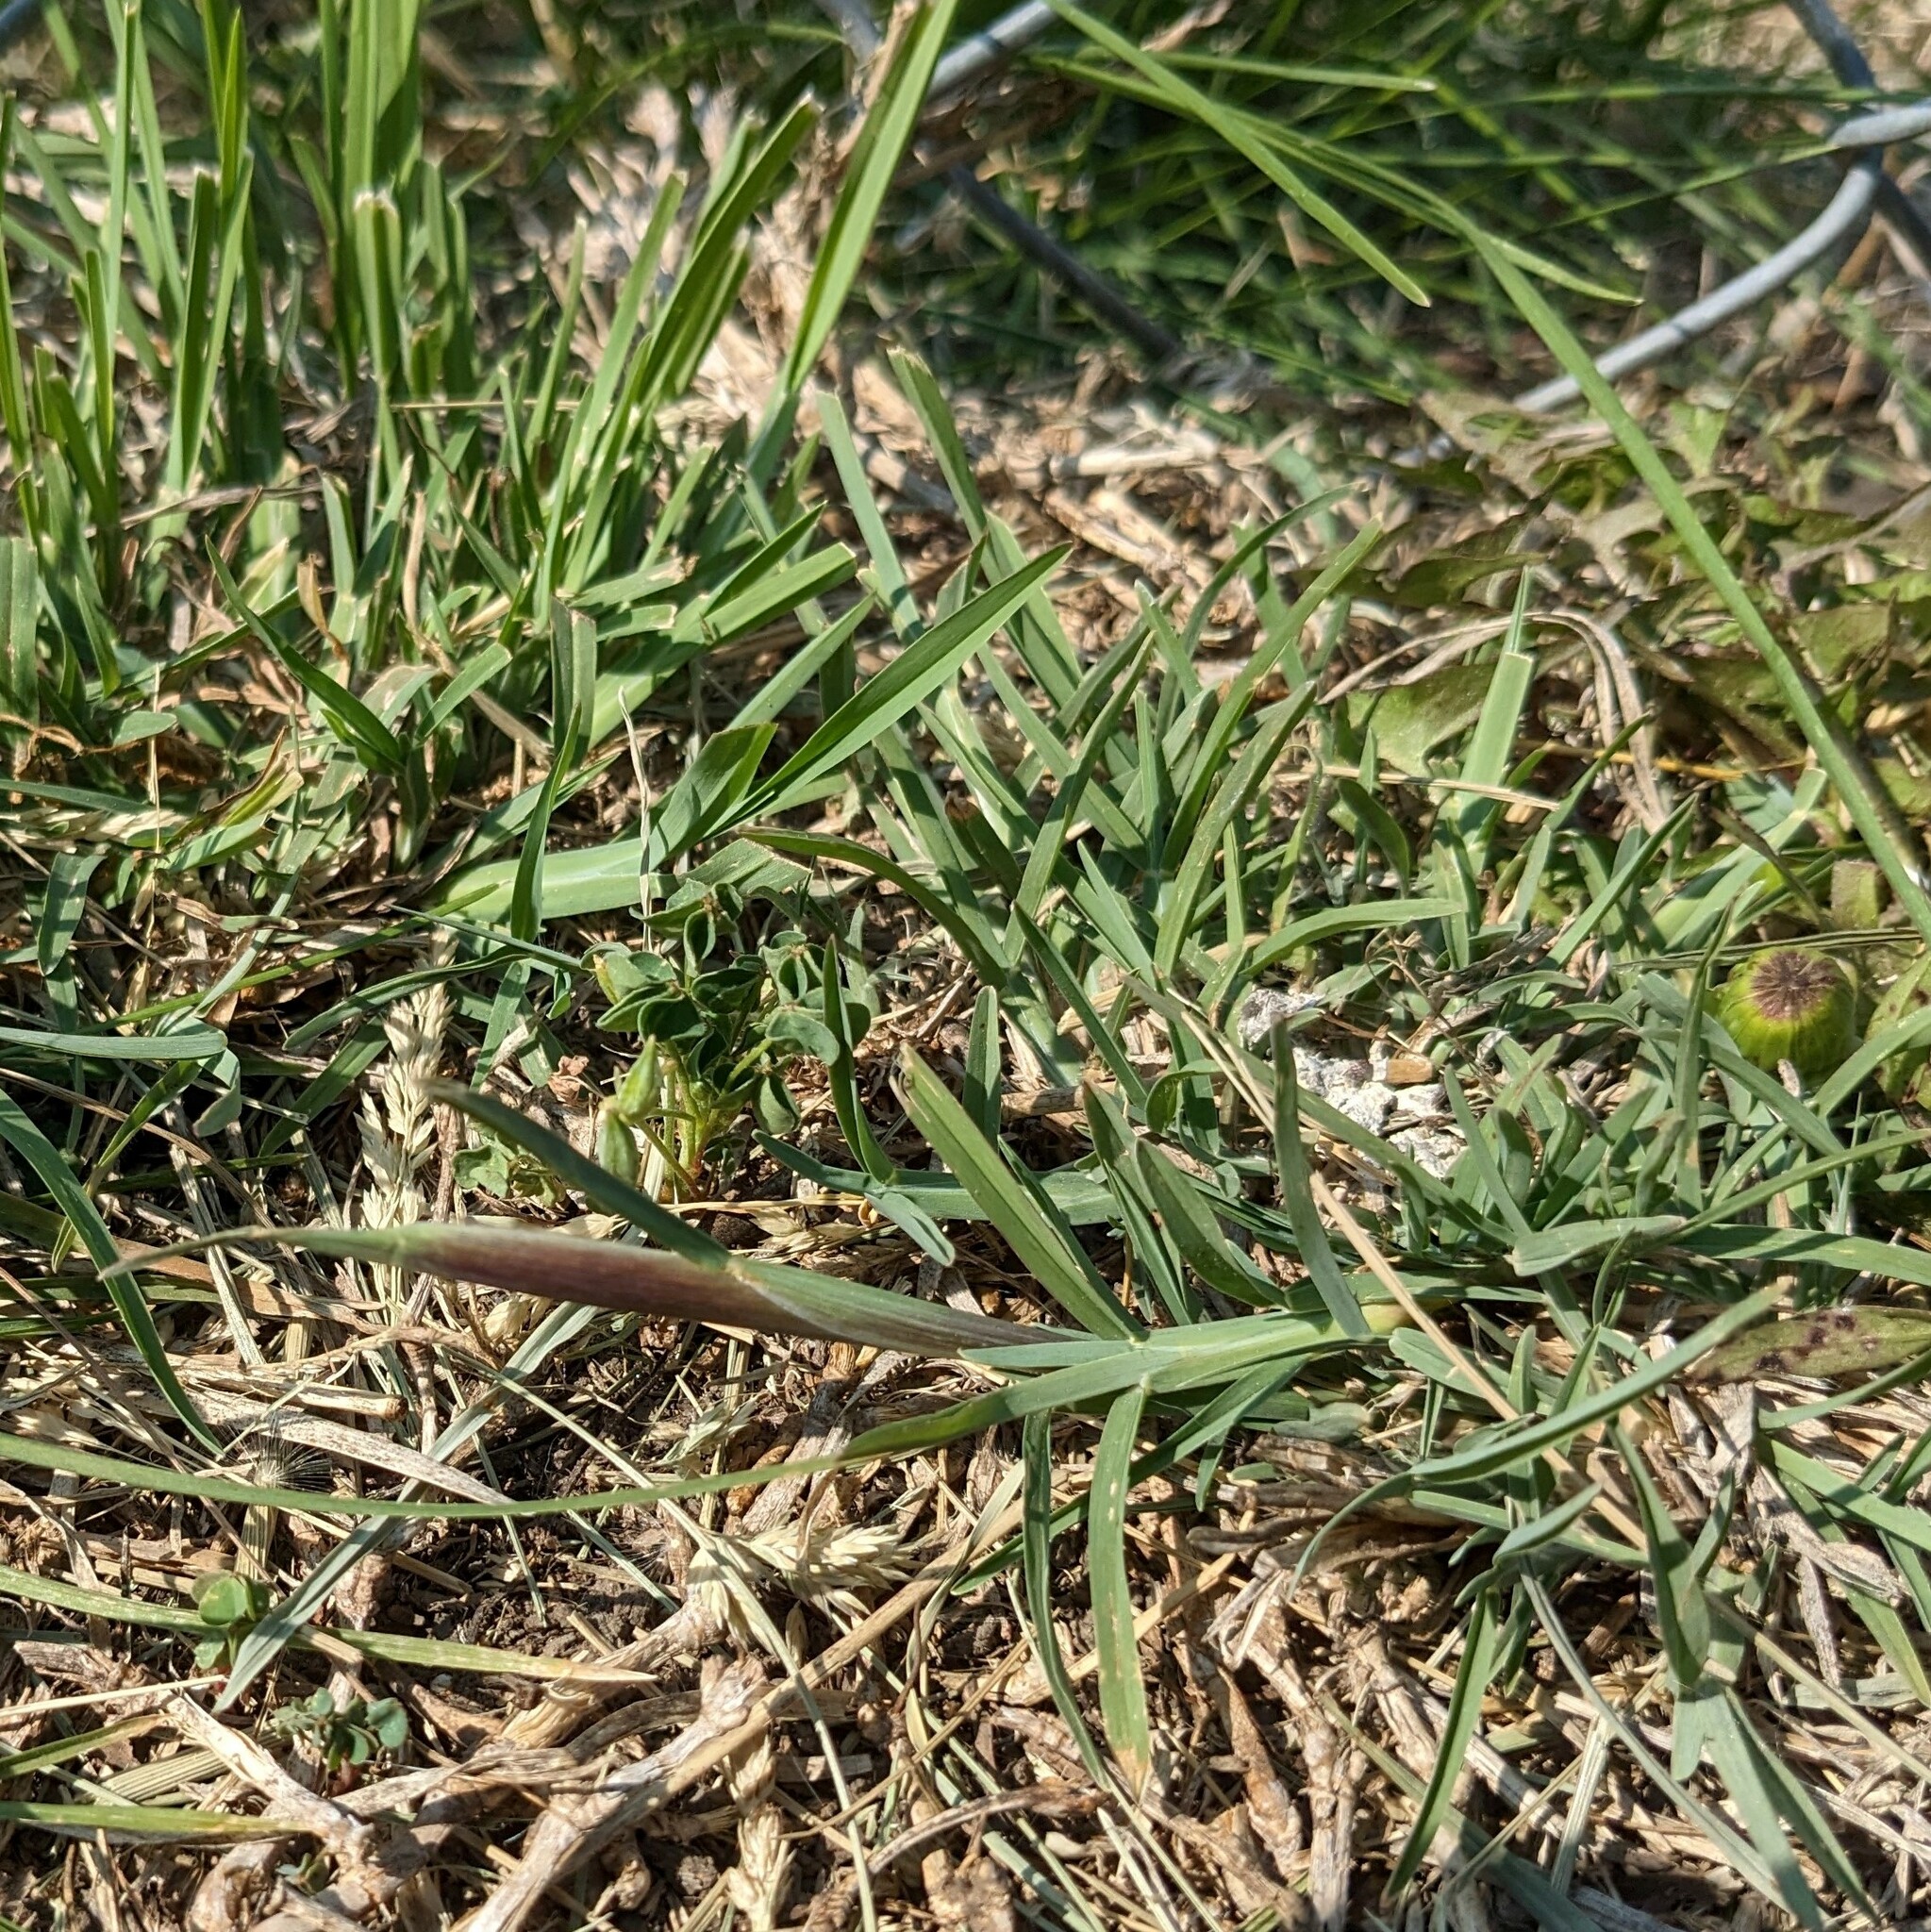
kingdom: Plantae
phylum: Tracheophyta
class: Liliopsida
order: Poales
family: Poaceae
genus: Chloris
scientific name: Chloris verticillata
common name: Tumble windmill grass
